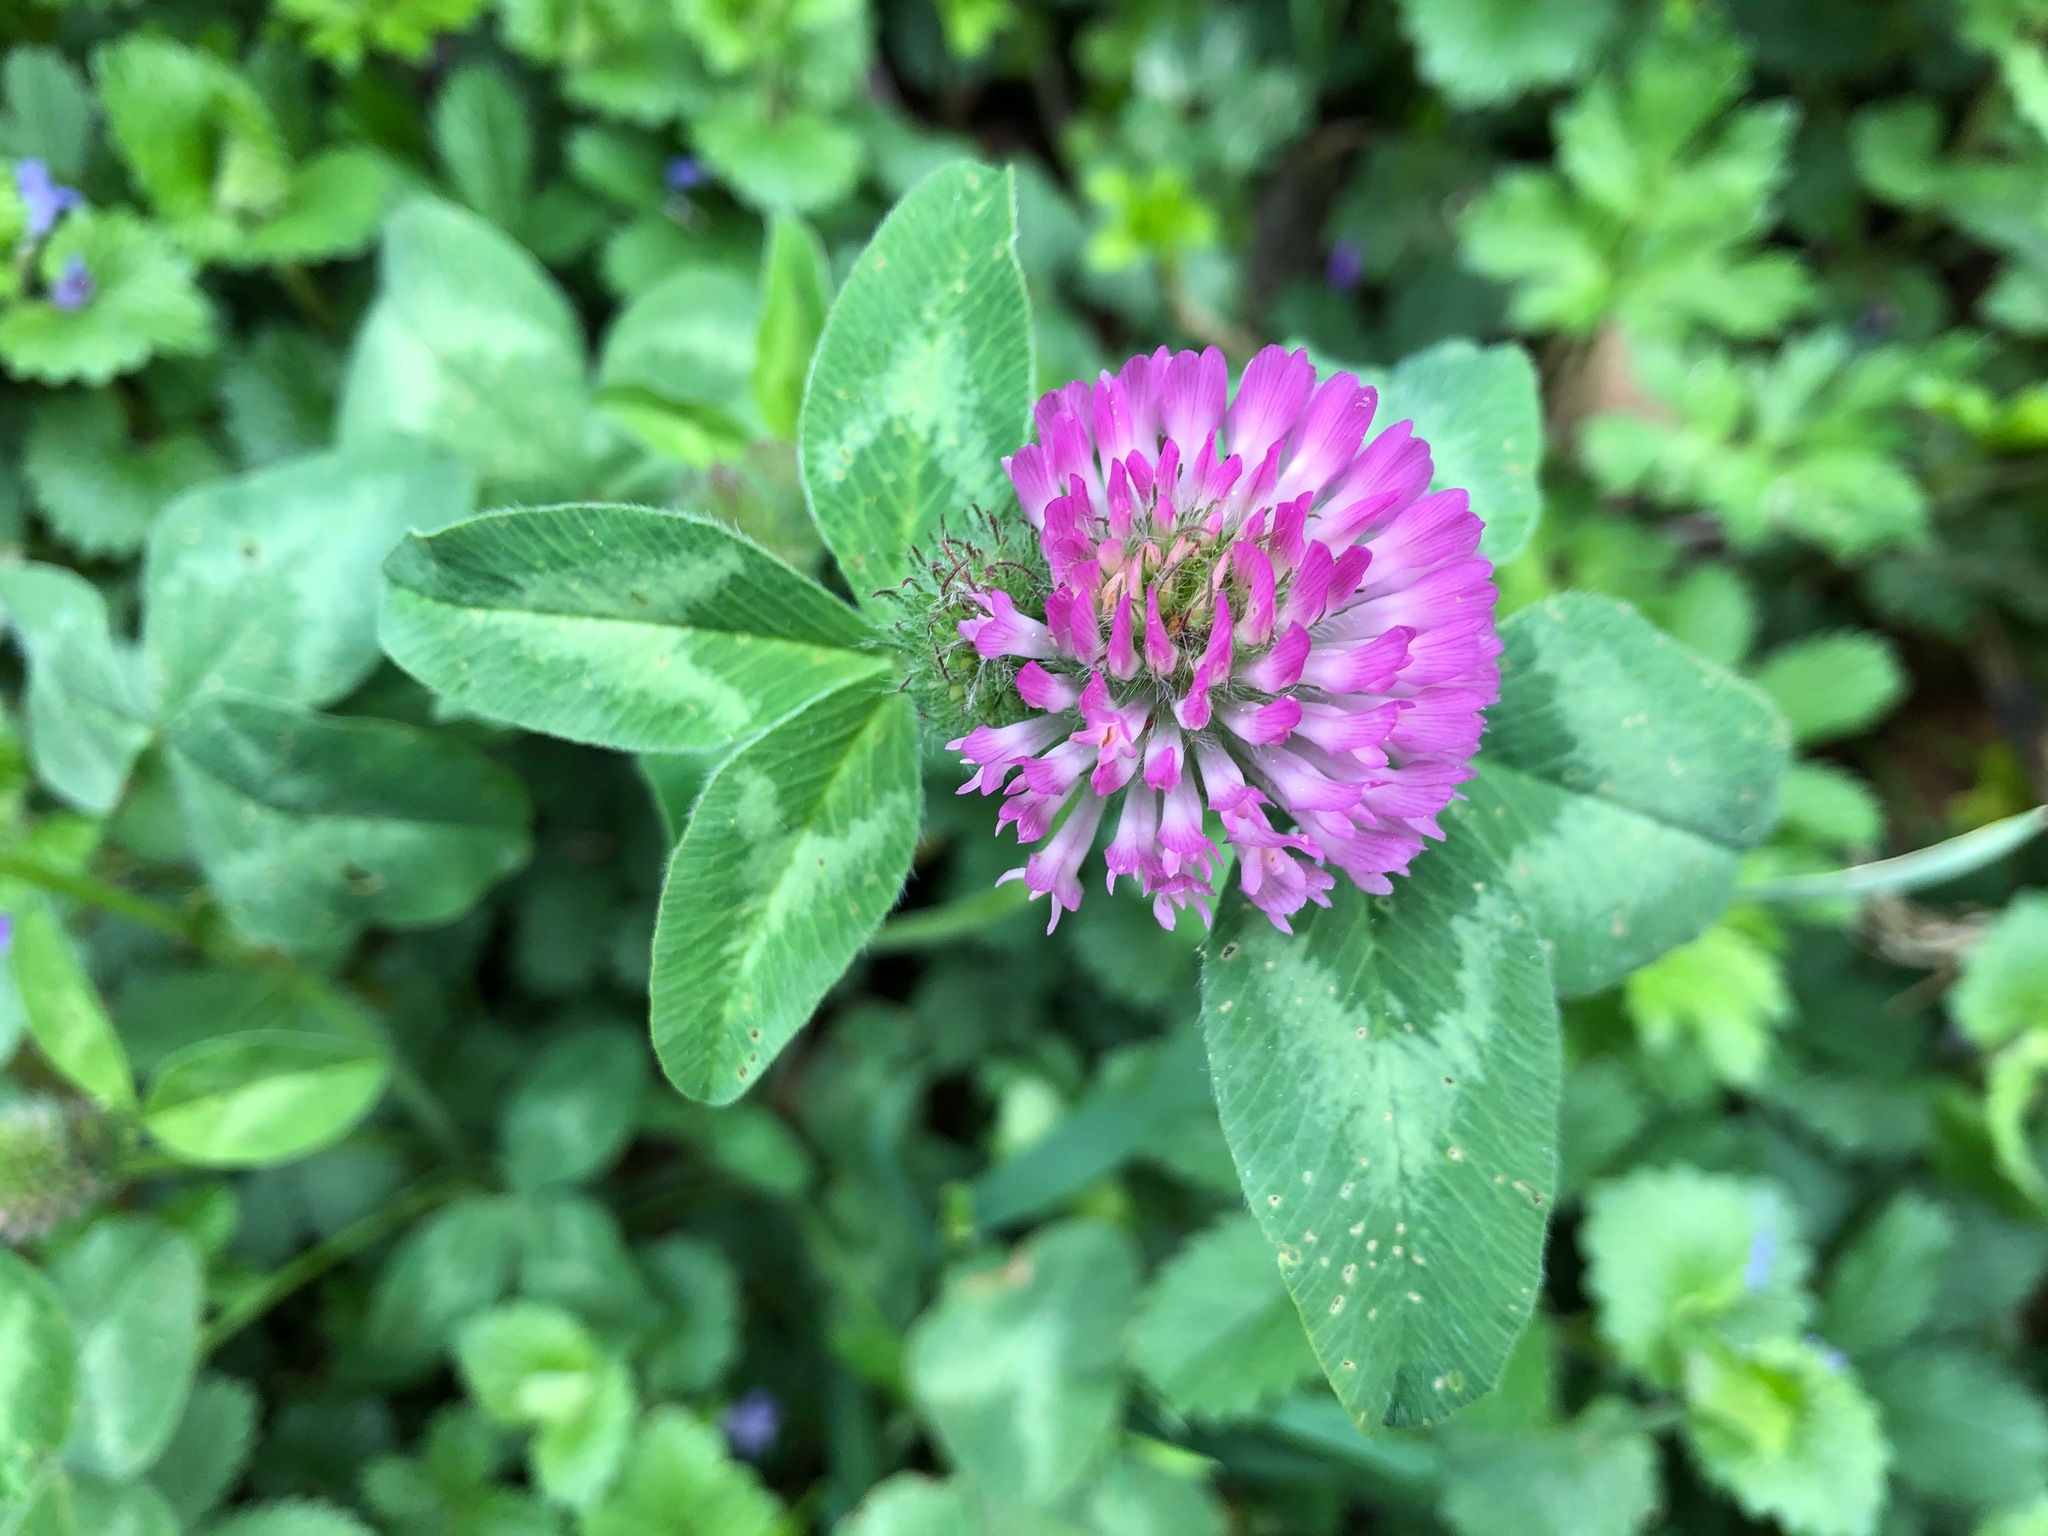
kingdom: Plantae
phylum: Tracheophyta
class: Magnoliopsida
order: Fabales
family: Fabaceae
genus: Trifolium
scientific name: Trifolium pratense
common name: Red clover
